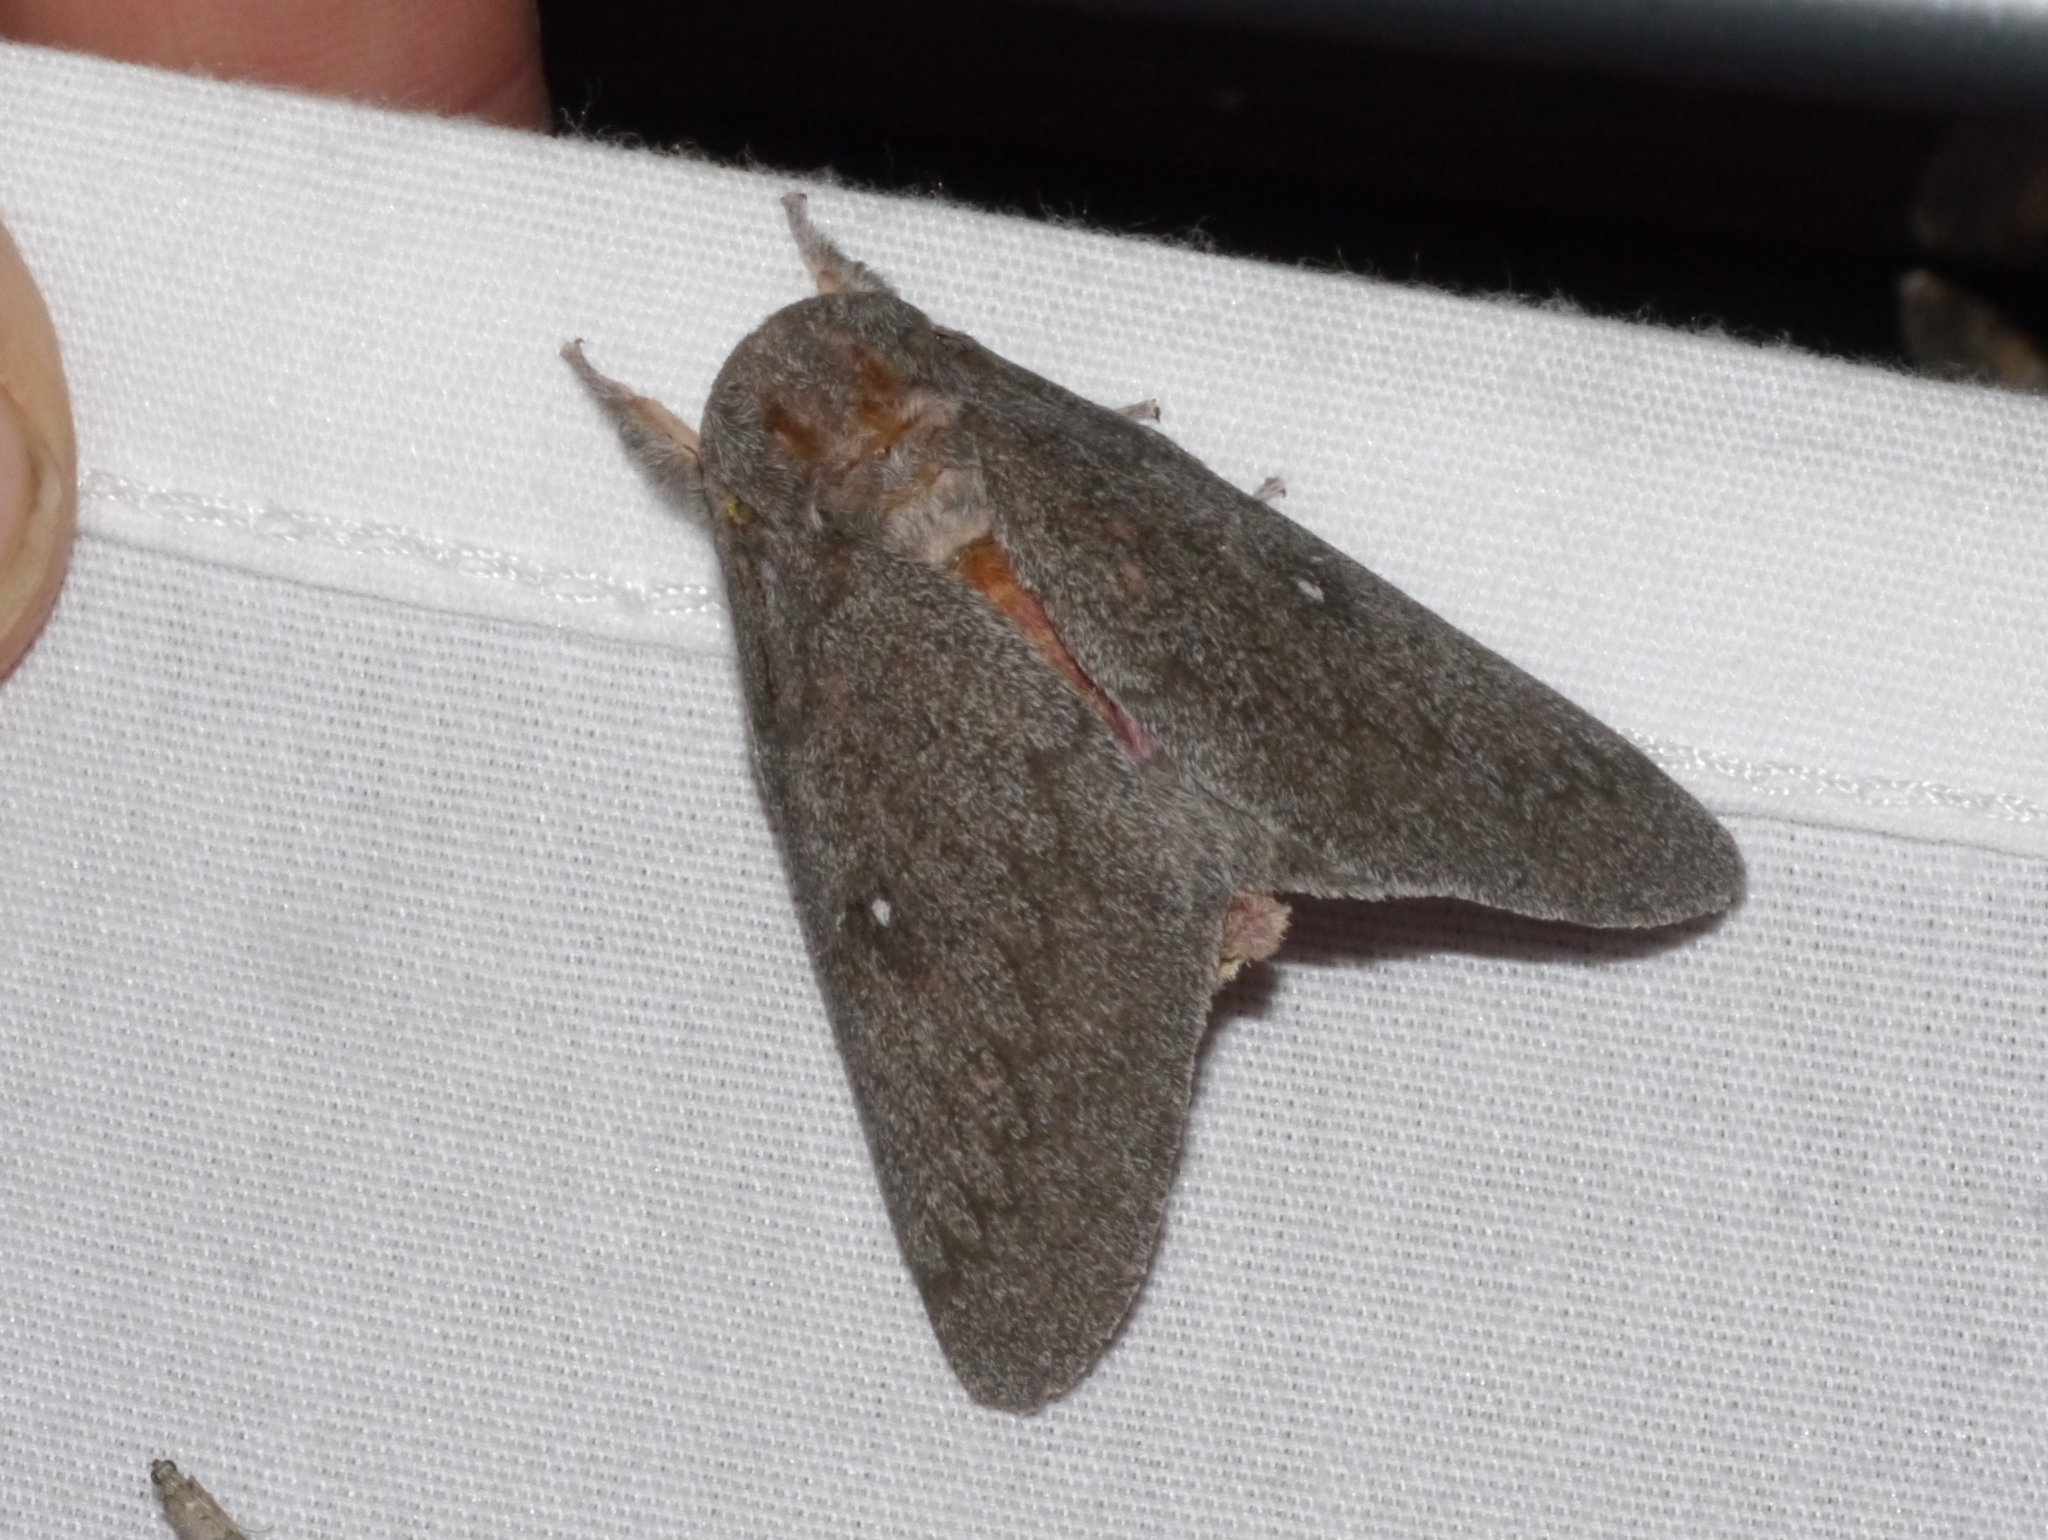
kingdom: Animalia
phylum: Arthropoda
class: Insecta
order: Lepidoptera
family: Saturniidae
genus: Syssphinx
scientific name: Syssphinx hubbardi
